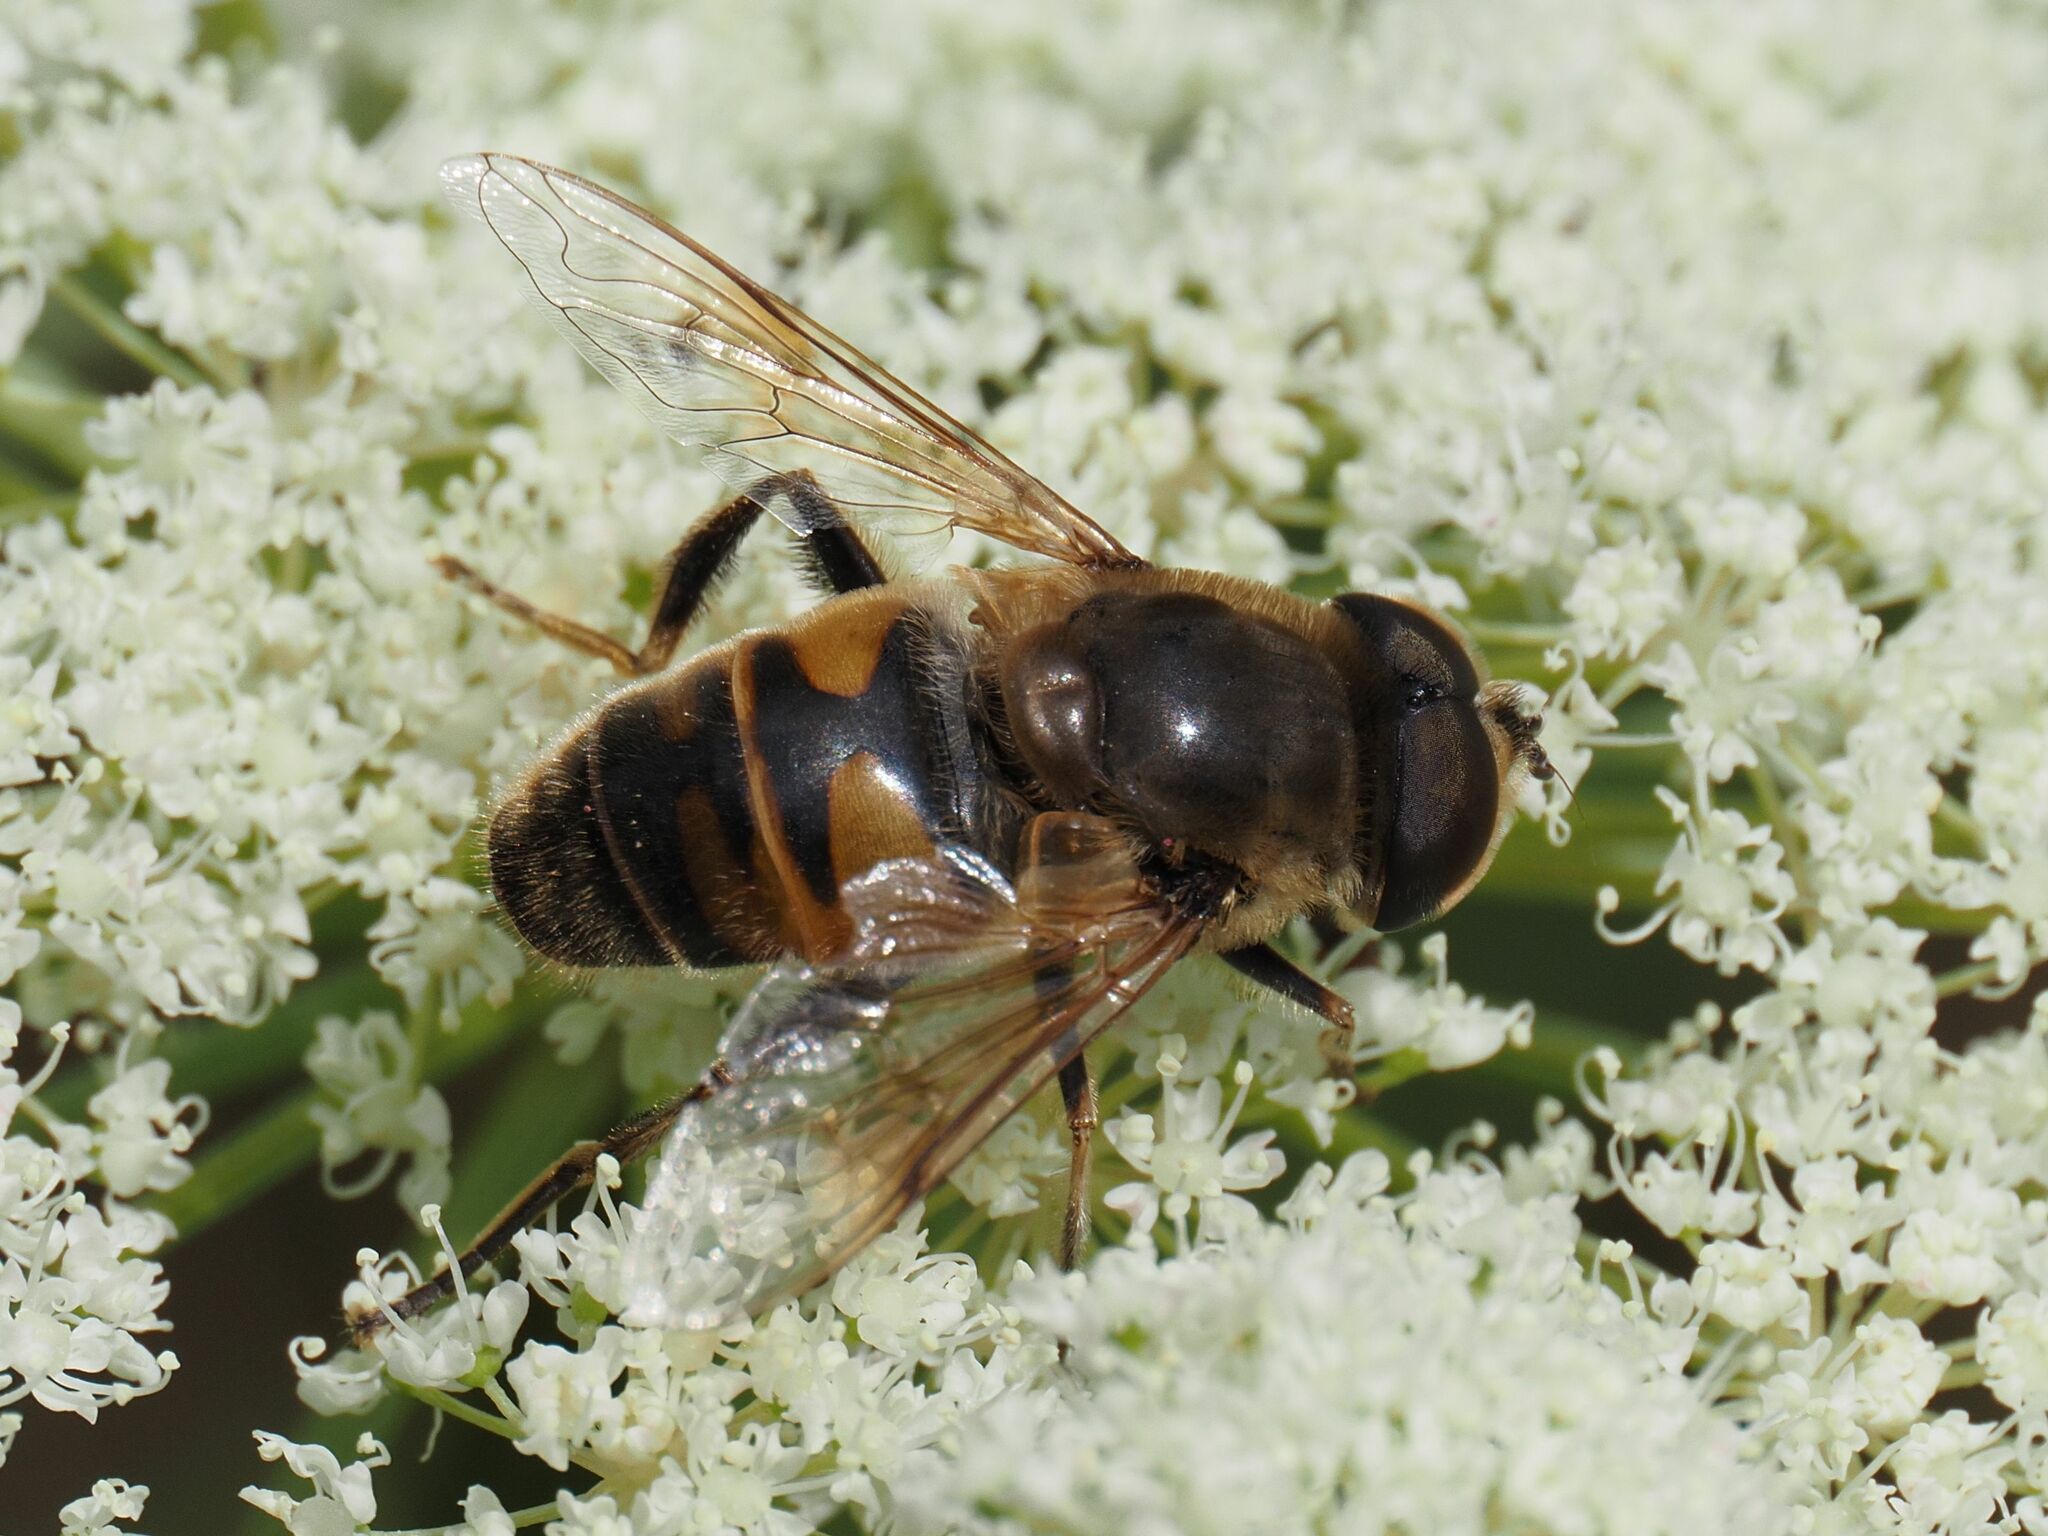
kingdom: Animalia
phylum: Arthropoda
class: Insecta
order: Diptera
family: Syrphidae
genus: Eristalis
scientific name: Eristalis tenax
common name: Drone fly
